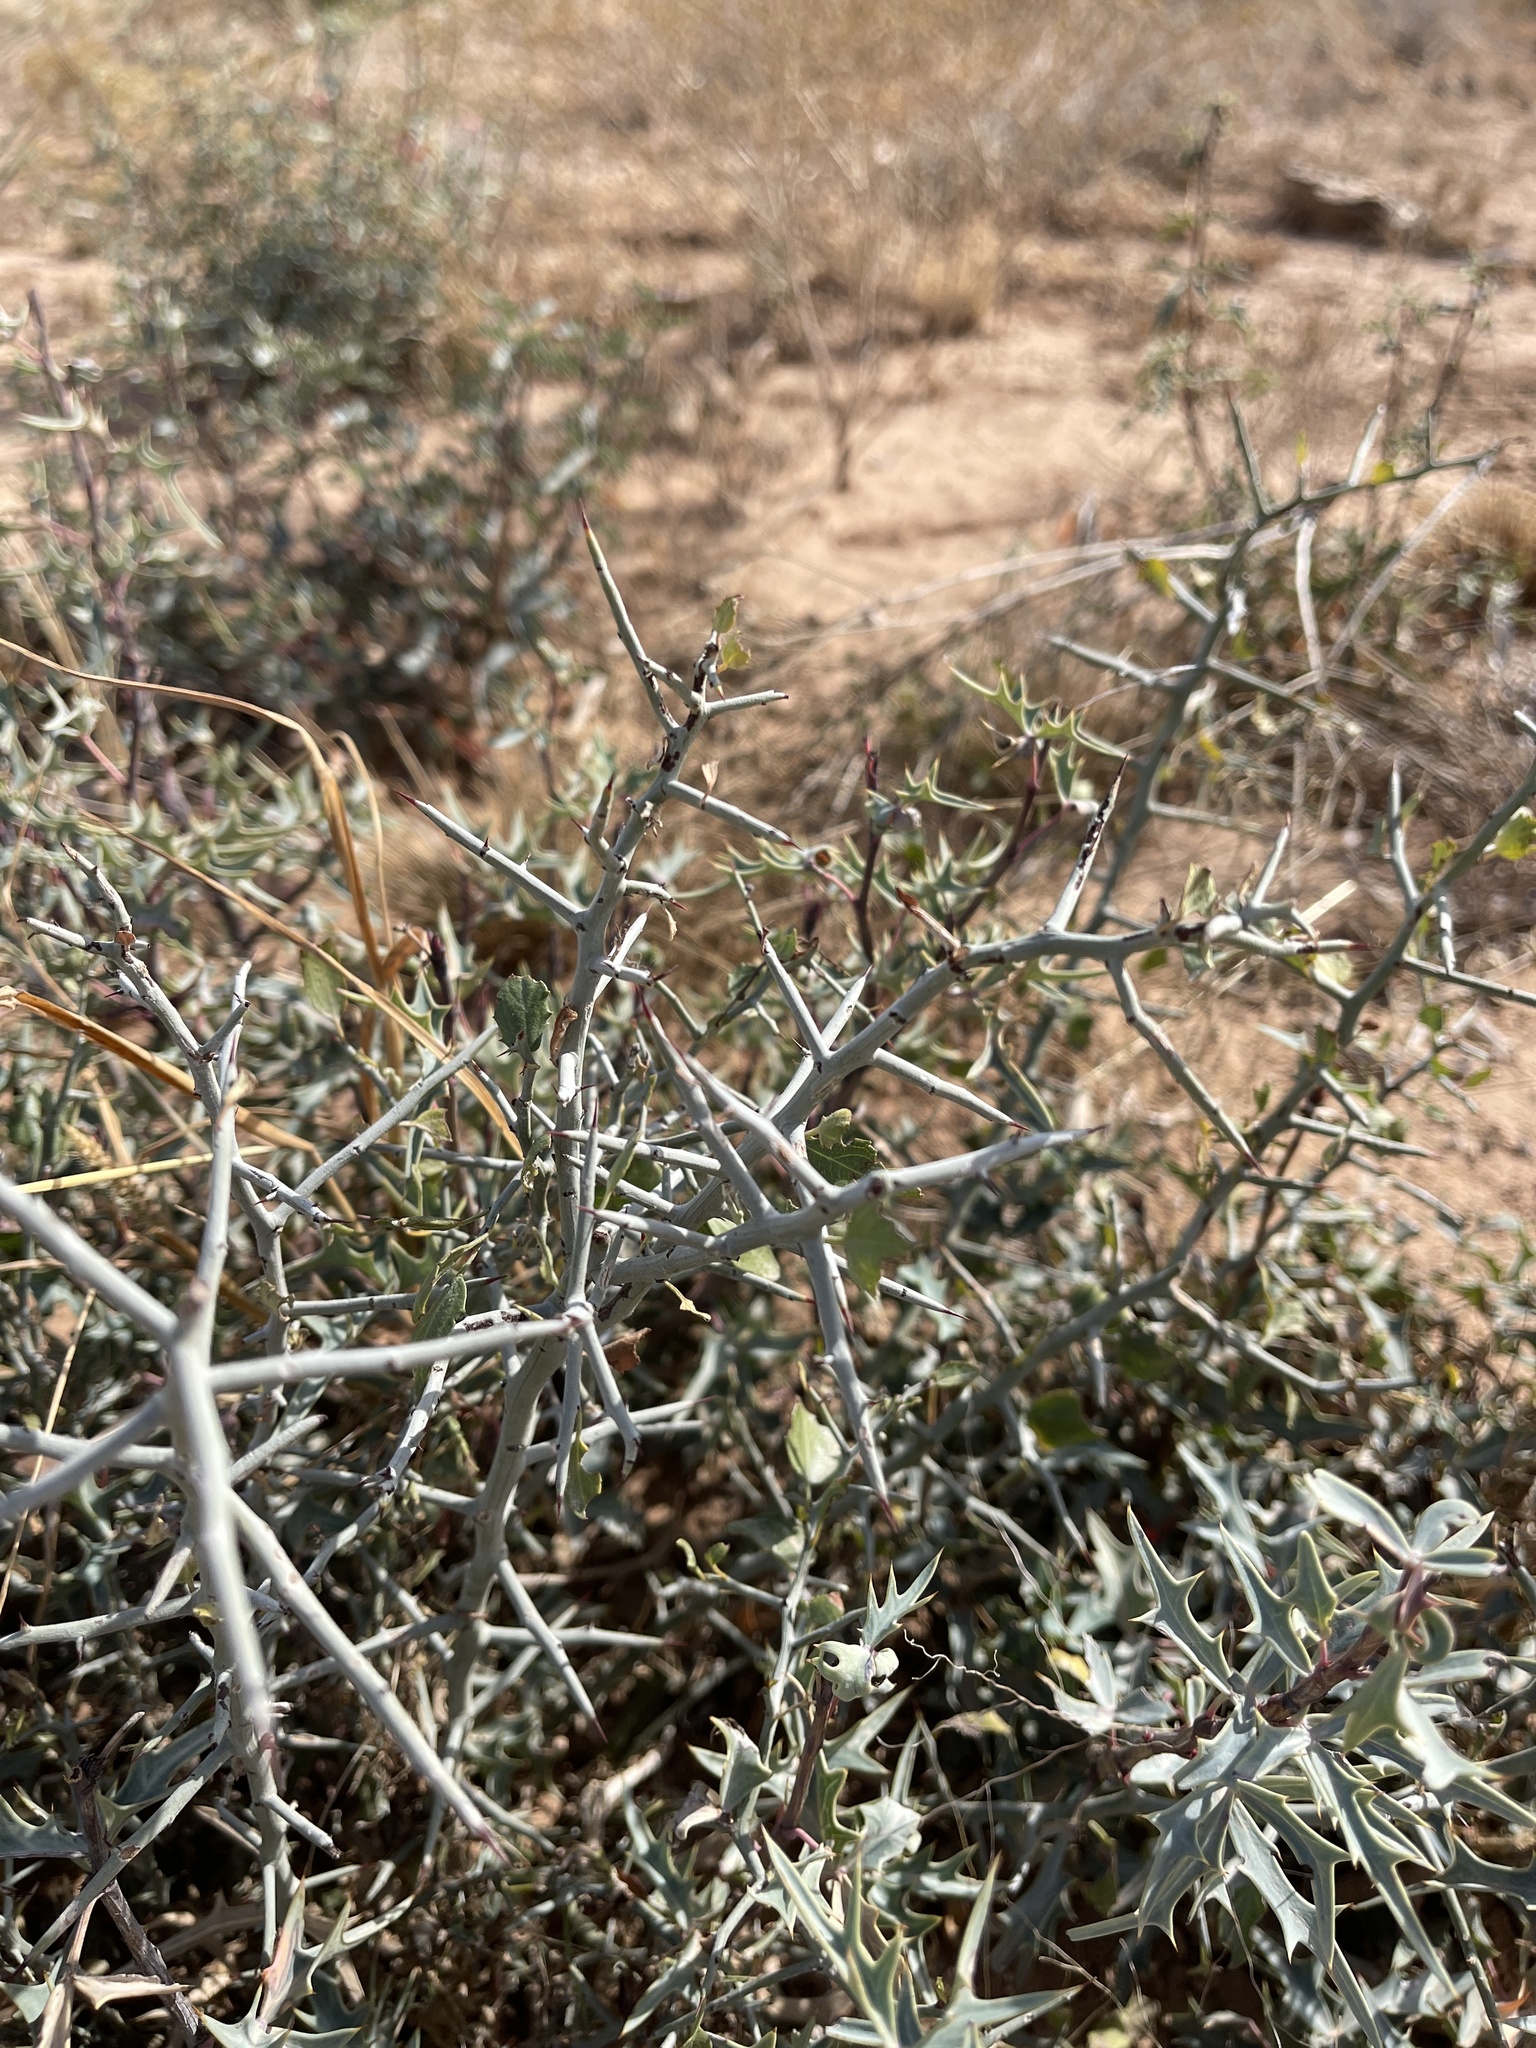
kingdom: Plantae
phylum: Tracheophyta
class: Magnoliopsida
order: Rosales
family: Rhamnaceae
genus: Sarcomphalus
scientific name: Sarcomphalus obtusifolius
